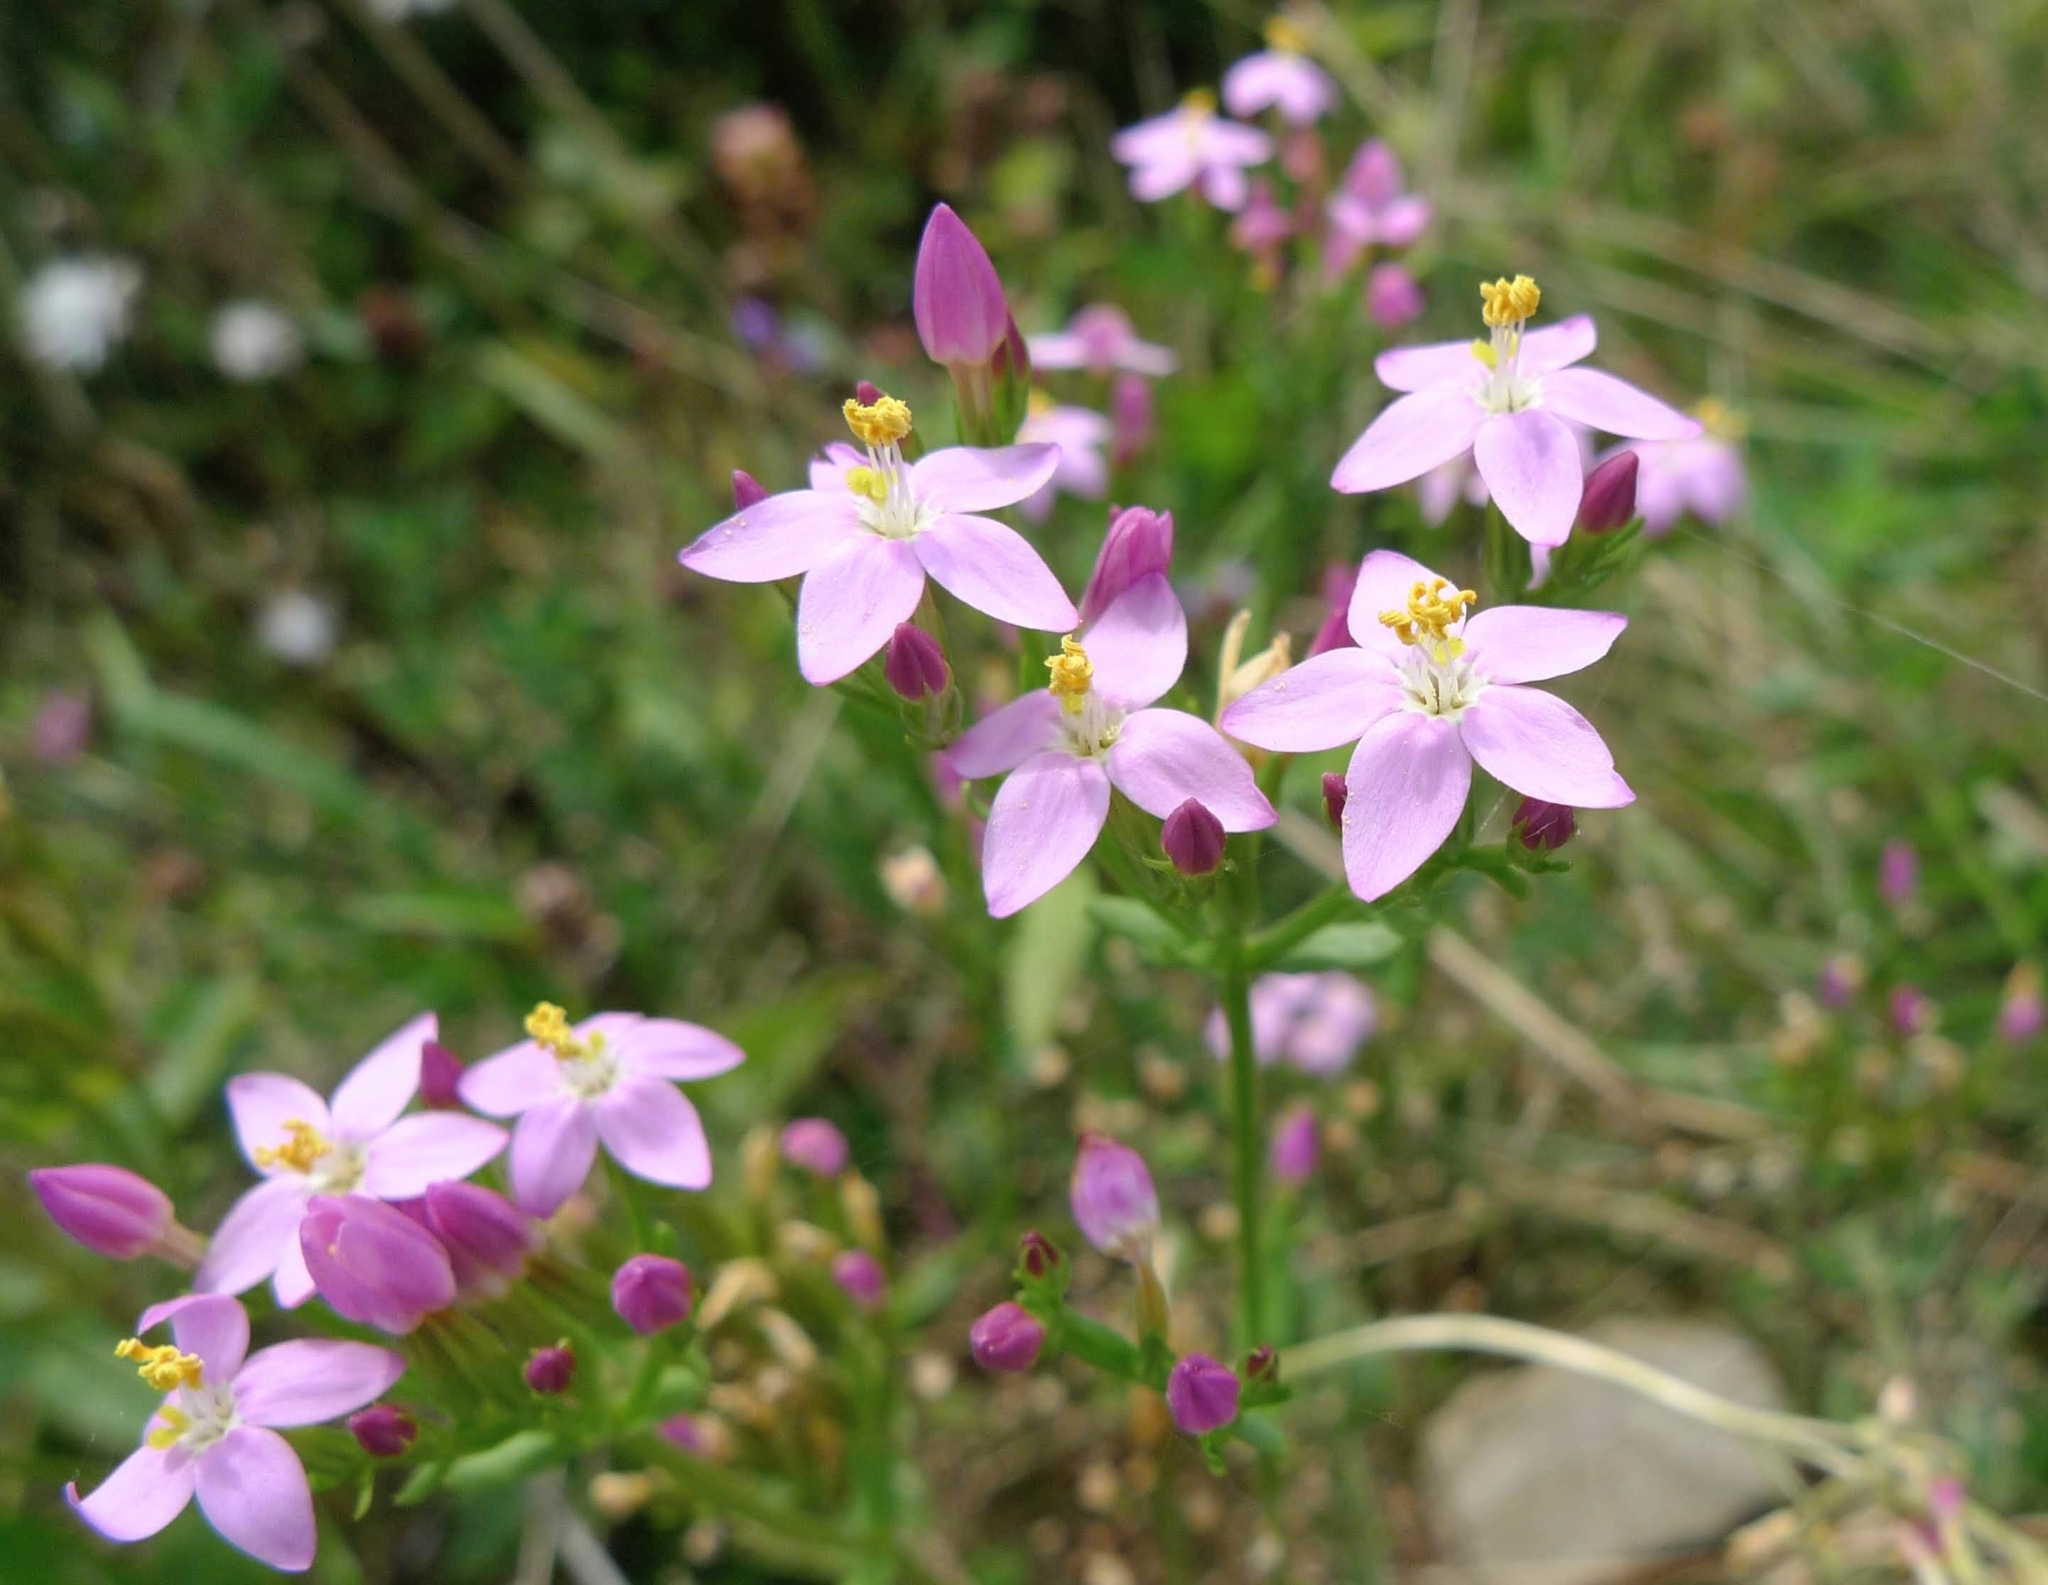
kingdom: Plantae
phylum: Tracheophyta
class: Magnoliopsida
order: Gentianales
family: Gentianaceae
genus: Centaurium
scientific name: Centaurium erythraea
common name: Common centaury
